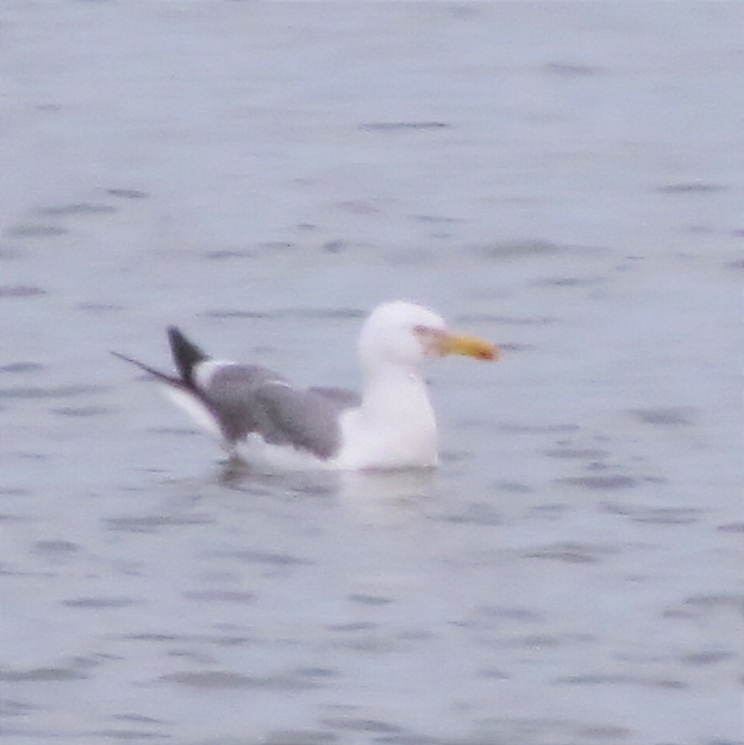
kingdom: Animalia
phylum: Chordata
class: Aves
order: Charadriiformes
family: Laridae
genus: Larus
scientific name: Larus fuscus
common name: Lesser black-backed gull
